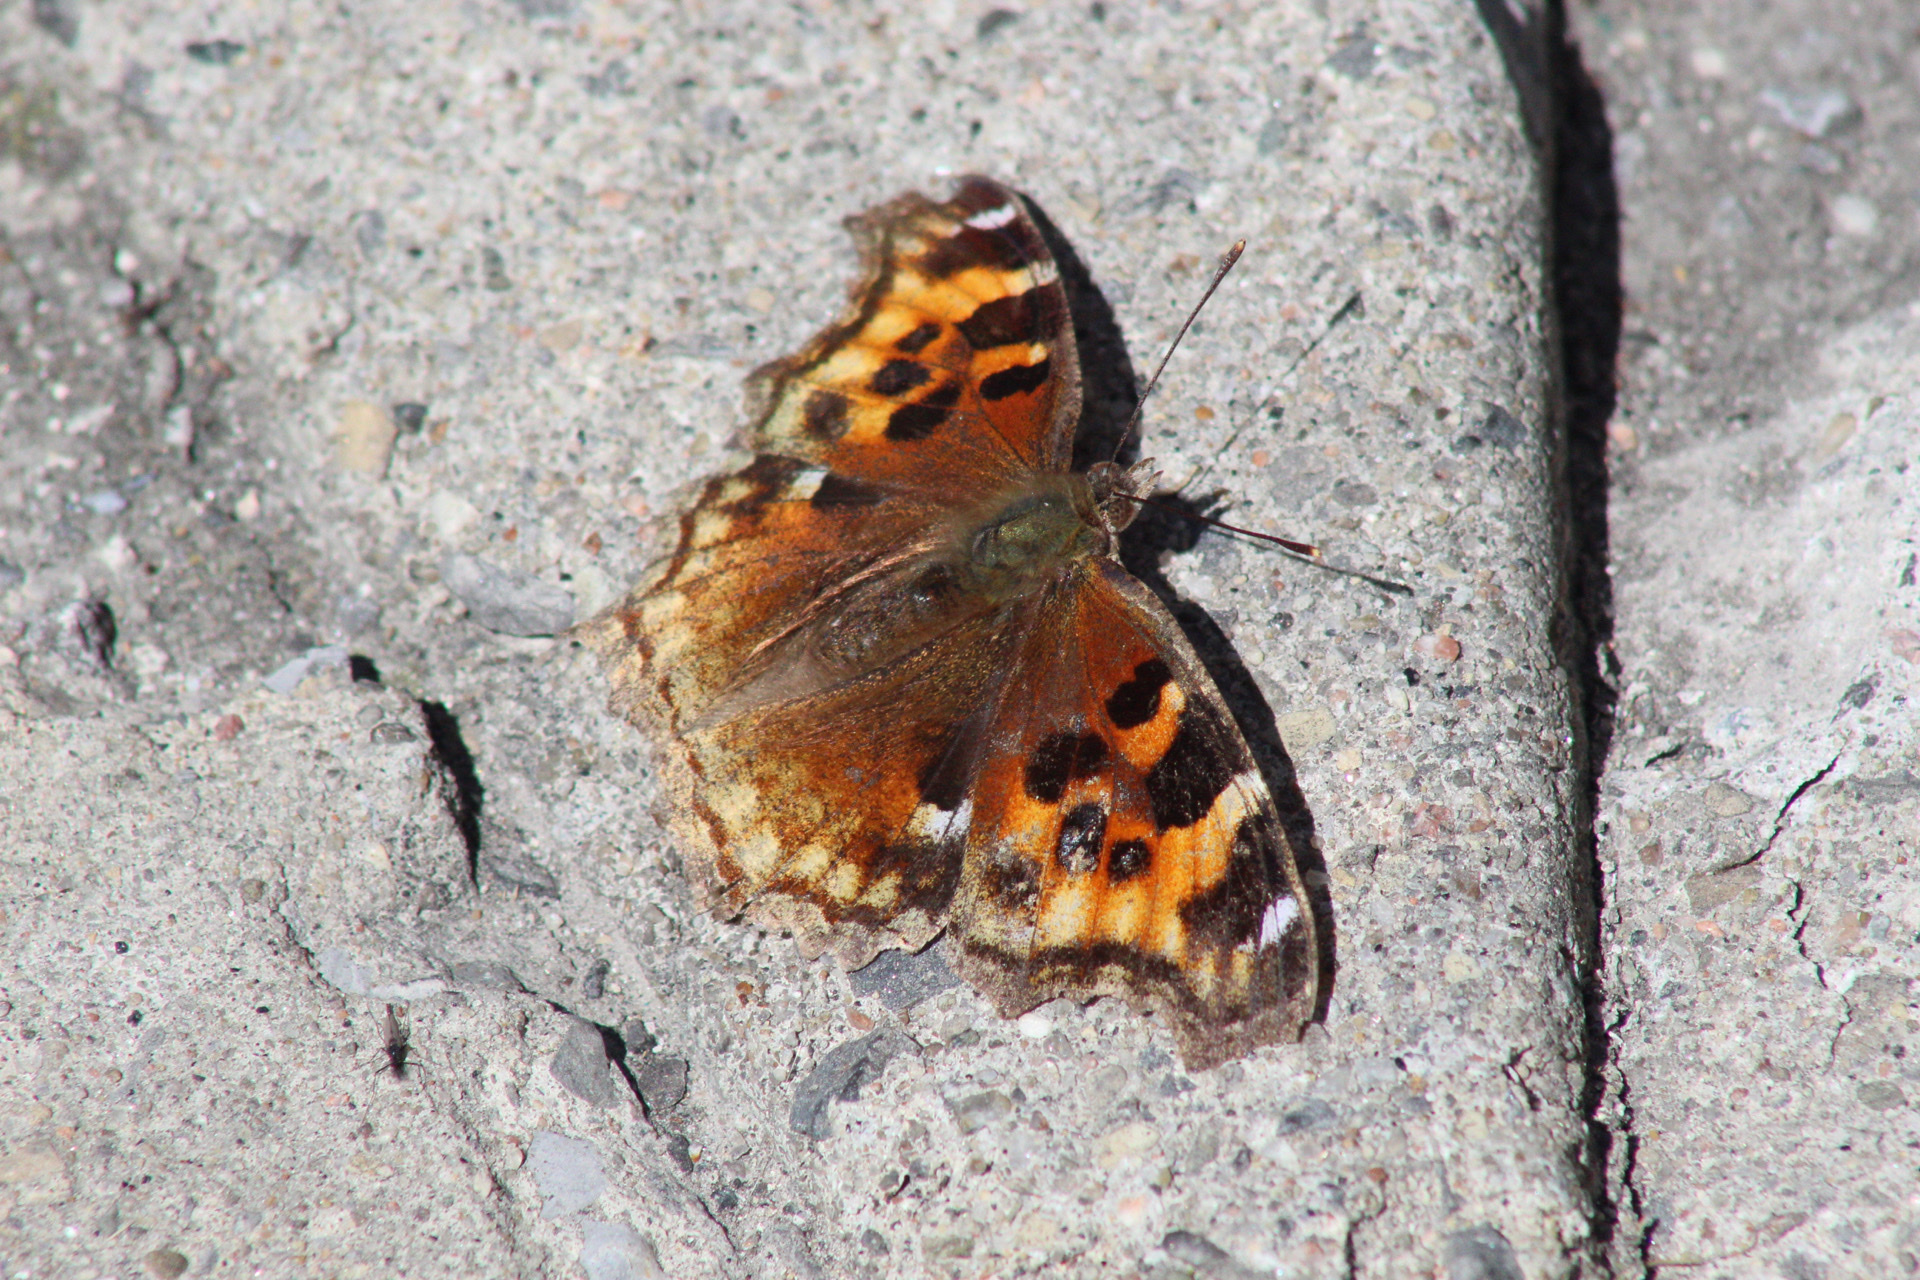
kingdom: Animalia
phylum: Arthropoda
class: Insecta
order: Lepidoptera
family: Nymphalidae
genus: Polygonia
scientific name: Polygonia vaualbum
